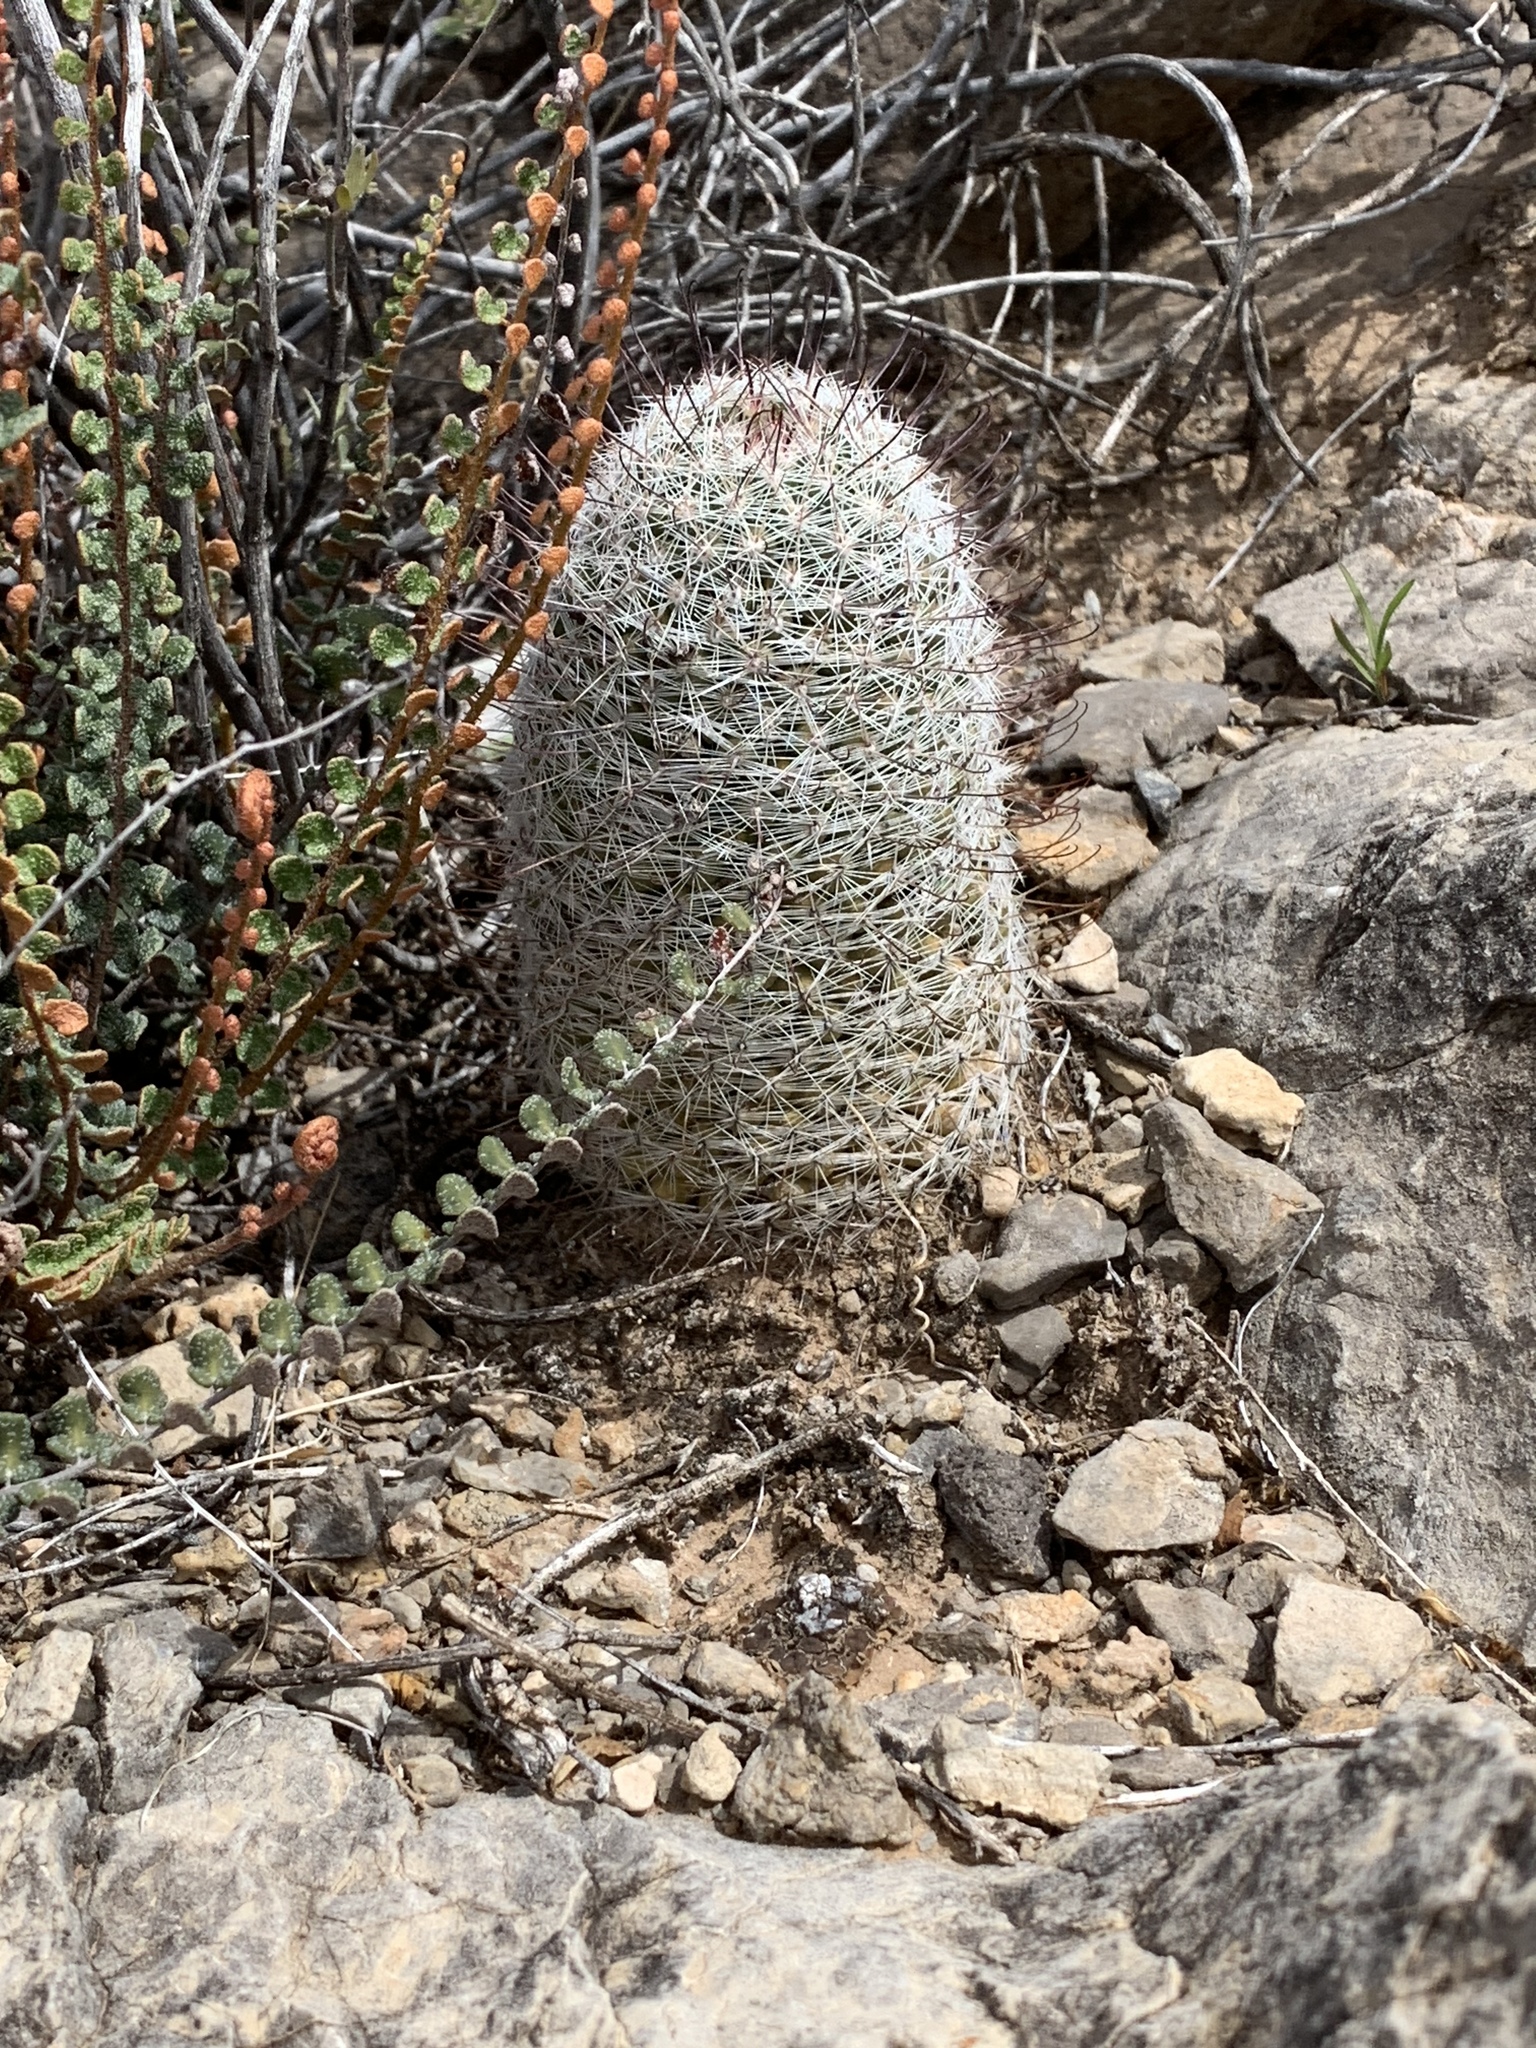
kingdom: Plantae
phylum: Tracheophyta
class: Magnoliopsida
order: Caryophyllales
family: Cactaceae
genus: Cochemiea
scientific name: Cochemiea grahamii
